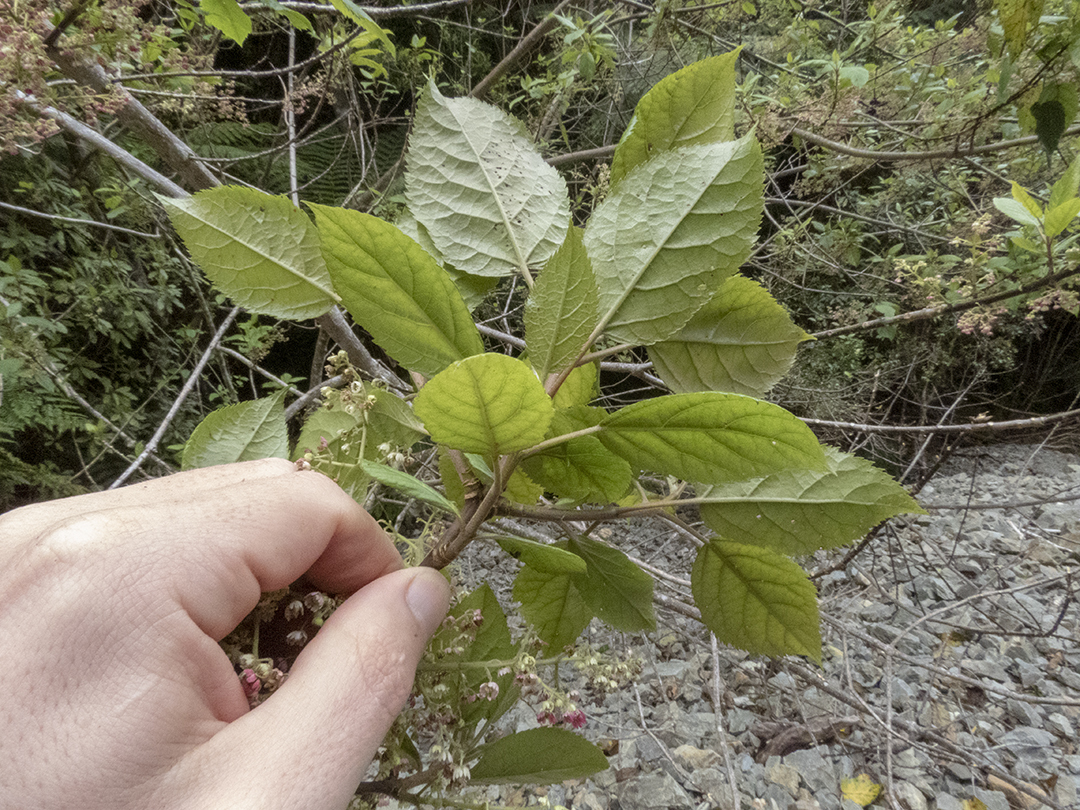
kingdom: Plantae
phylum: Tracheophyta
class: Magnoliopsida
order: Oxalidales
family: Elaeocarpaceae
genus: Aristotelia
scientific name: Aristotelia serrata
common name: New zealand wineberry
